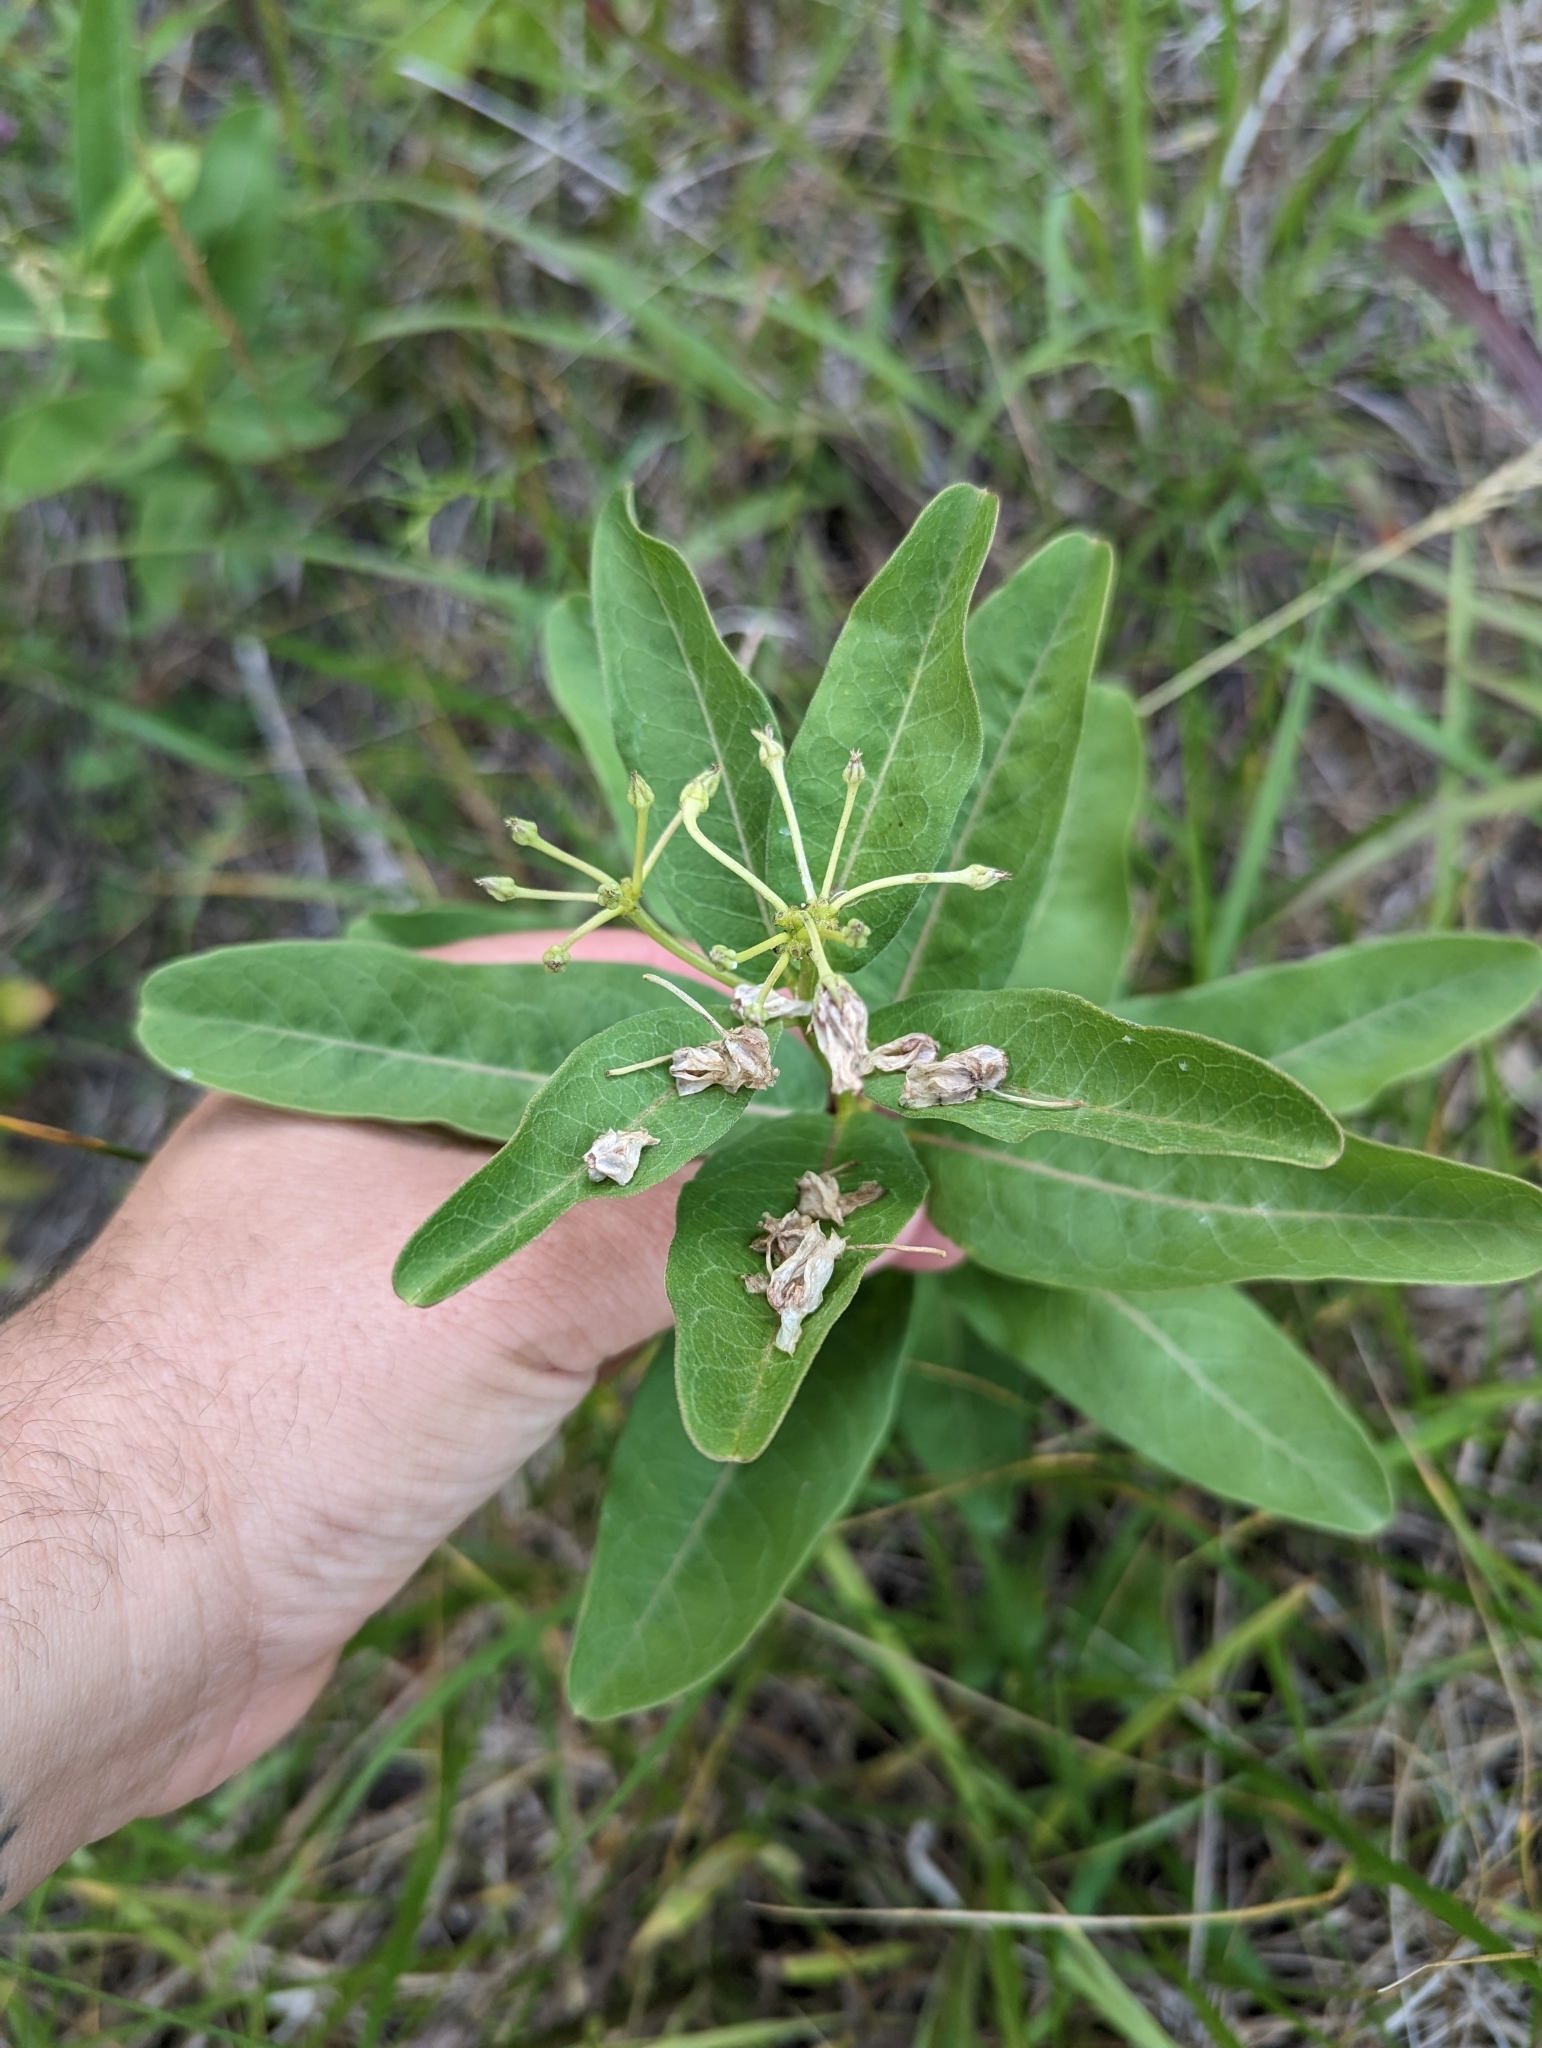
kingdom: Plantae
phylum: Tracheophyta
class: Magnoliopsida
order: Gentianales
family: Apocynaceae
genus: Asclepias
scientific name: Asclepias viridis
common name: Antelope-horns
